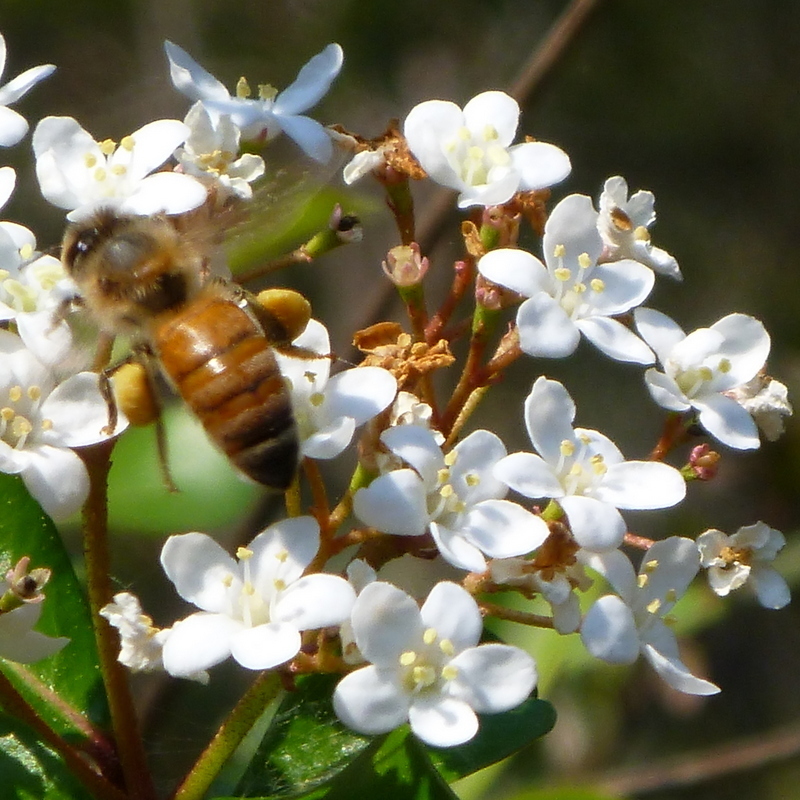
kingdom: Plantae
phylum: Tracheophyta
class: Magnoliopsida
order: Dipsacales
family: Viburnaceae
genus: Viburnum
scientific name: Viburnum obovatum
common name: Walter's viburnum
